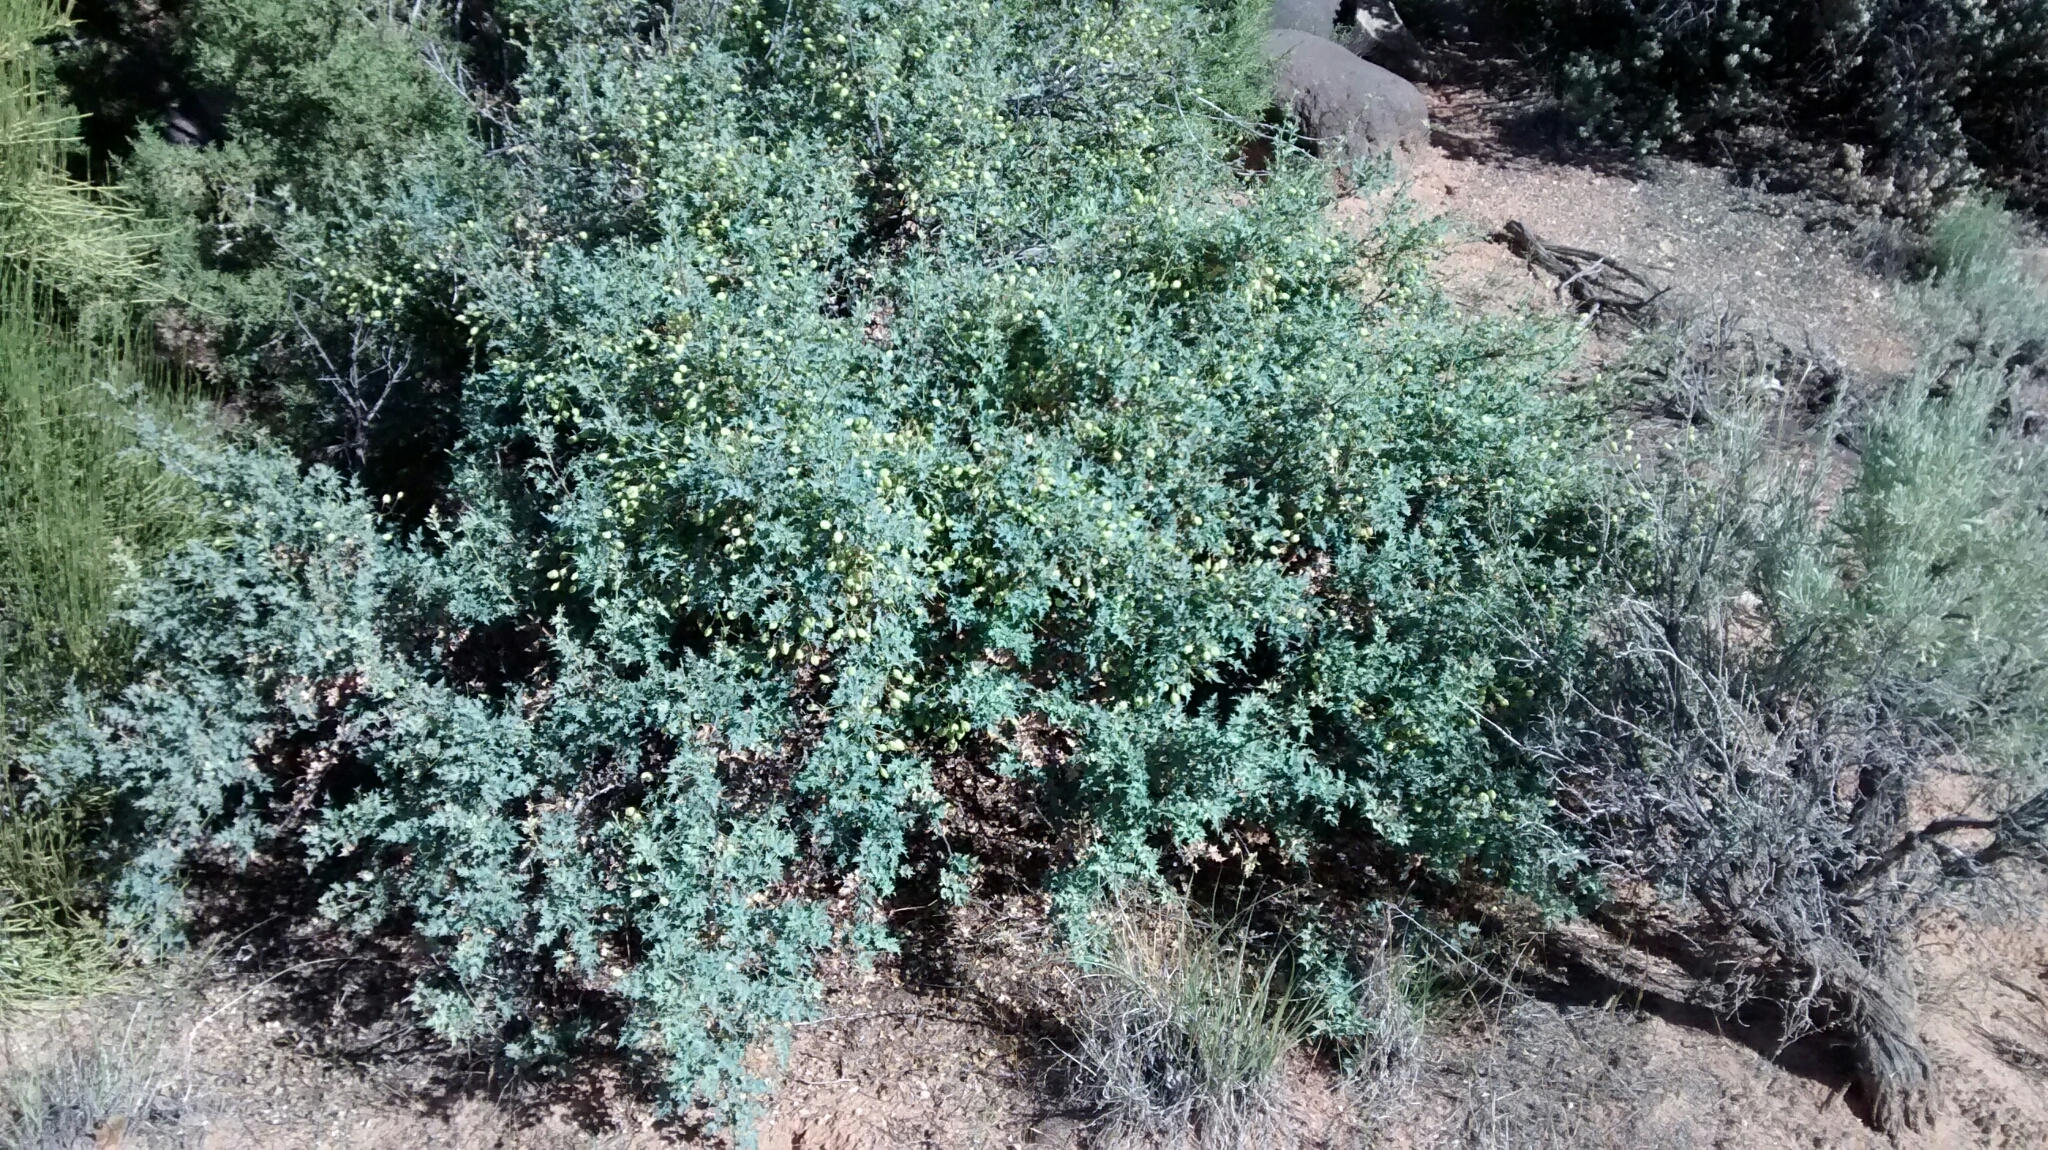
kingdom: Plantae
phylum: Tracheophyta
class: Magnoliopsida
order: Ranunculales
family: Berberidaceae
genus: Alloberberis
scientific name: Alloberberis fremontii
